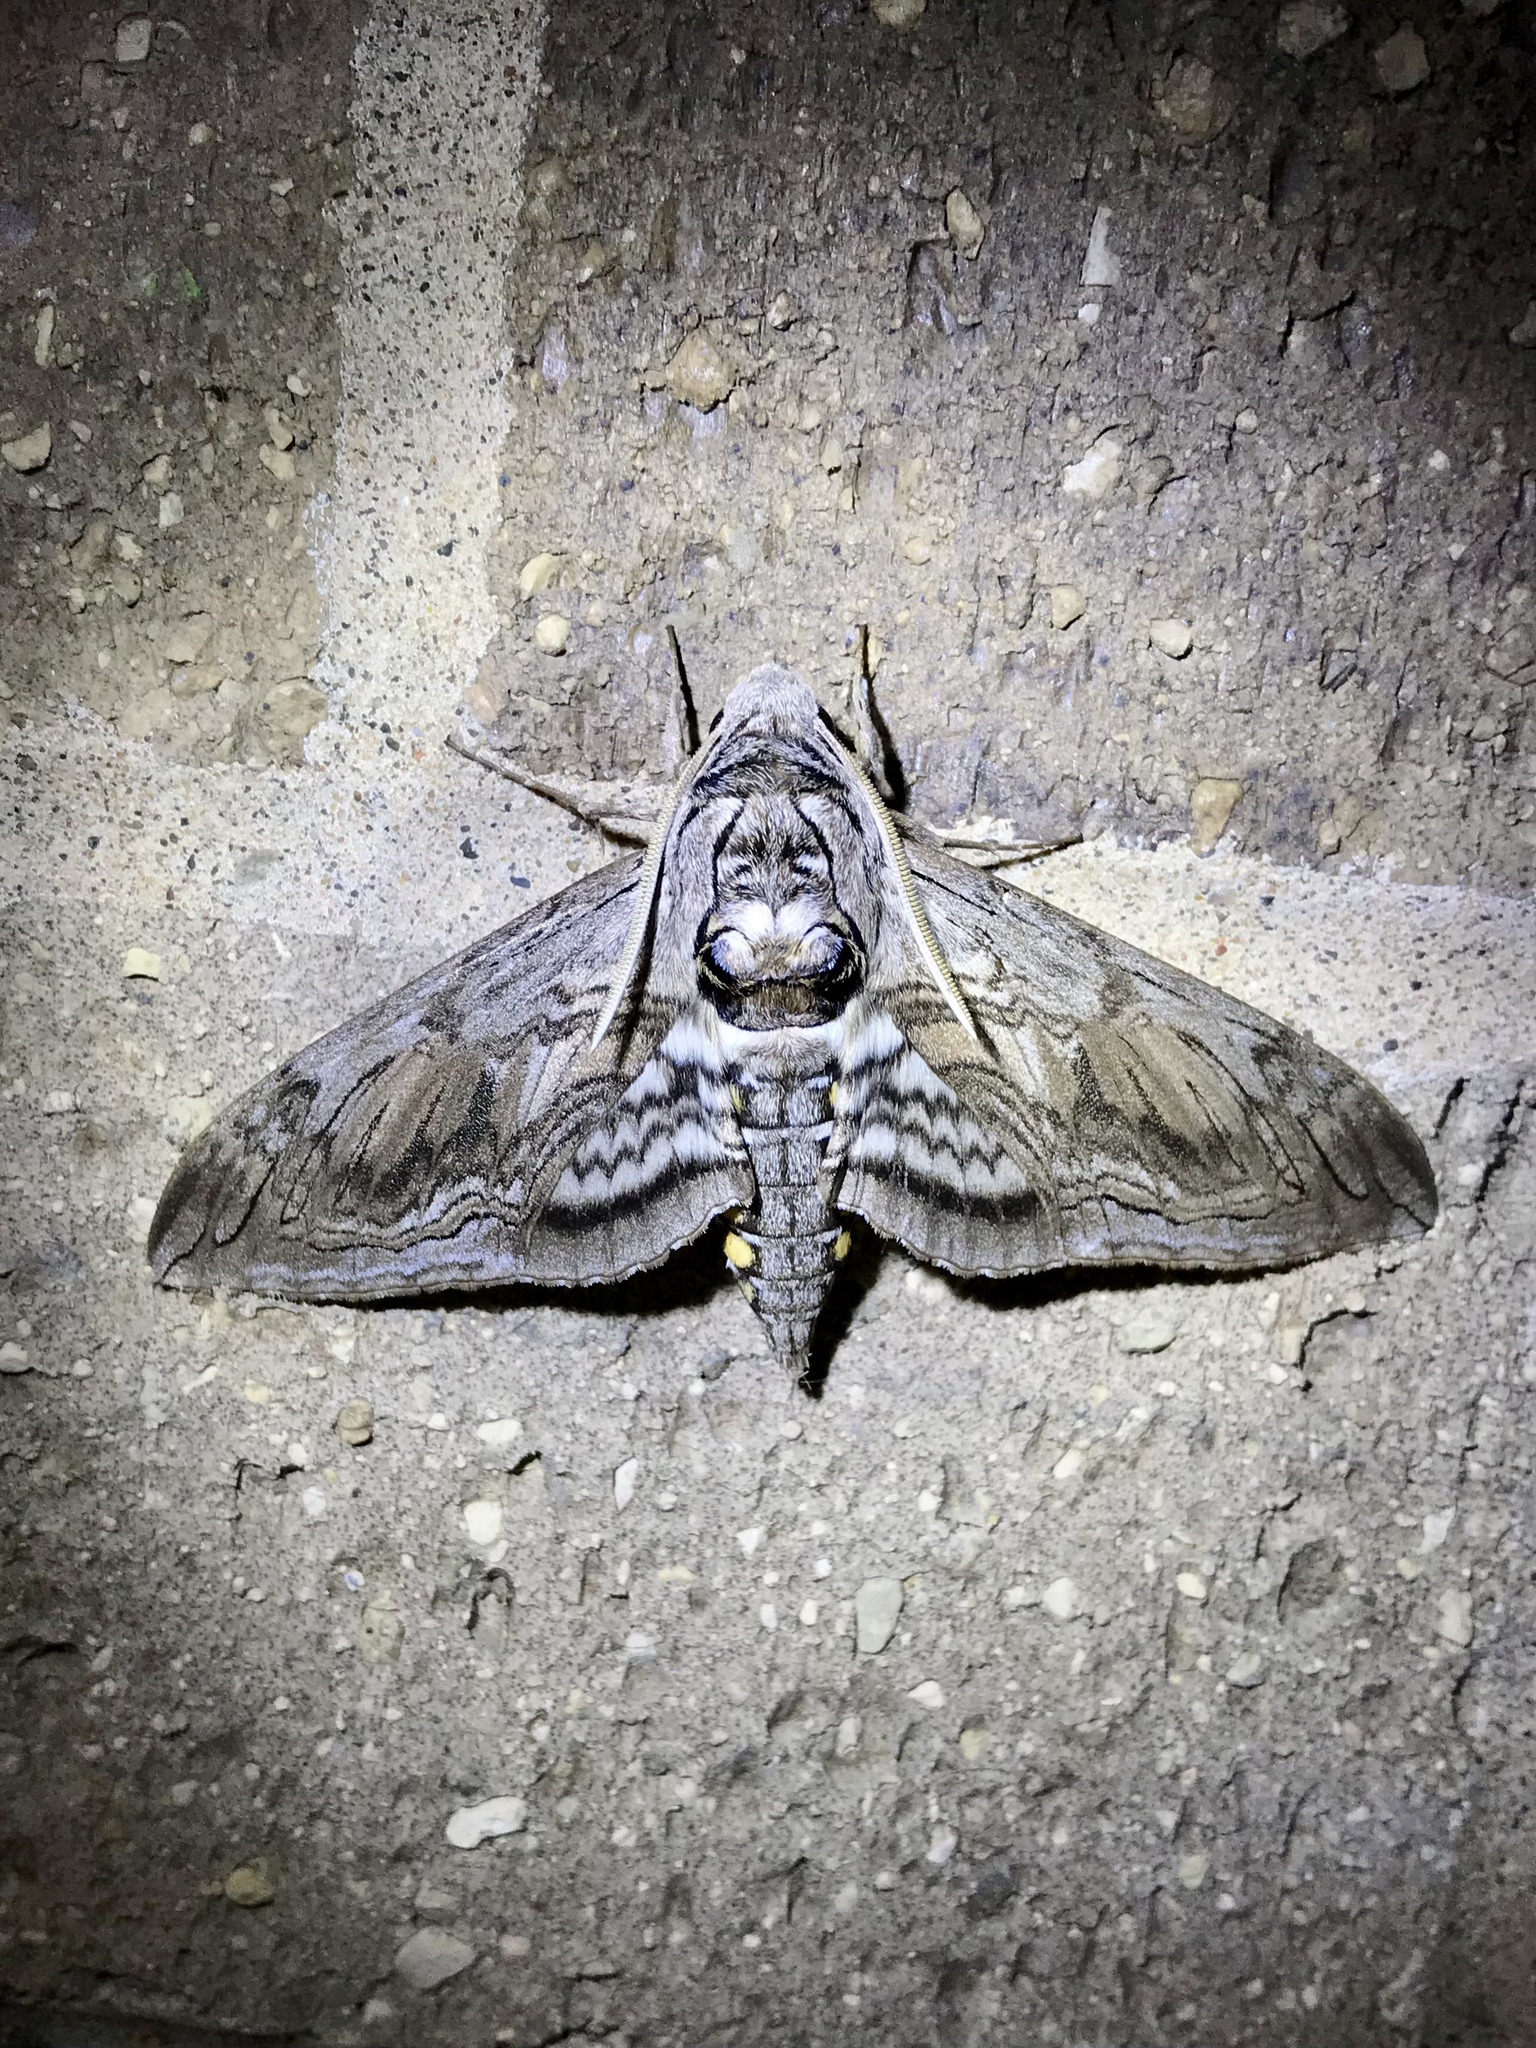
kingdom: Animalia
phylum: Arthropoda
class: Insecta
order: Lepidoptera
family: Sphingidae
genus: Manduca
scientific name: Manduca quinquemaculatus
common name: Five-spotted hawk-moth
